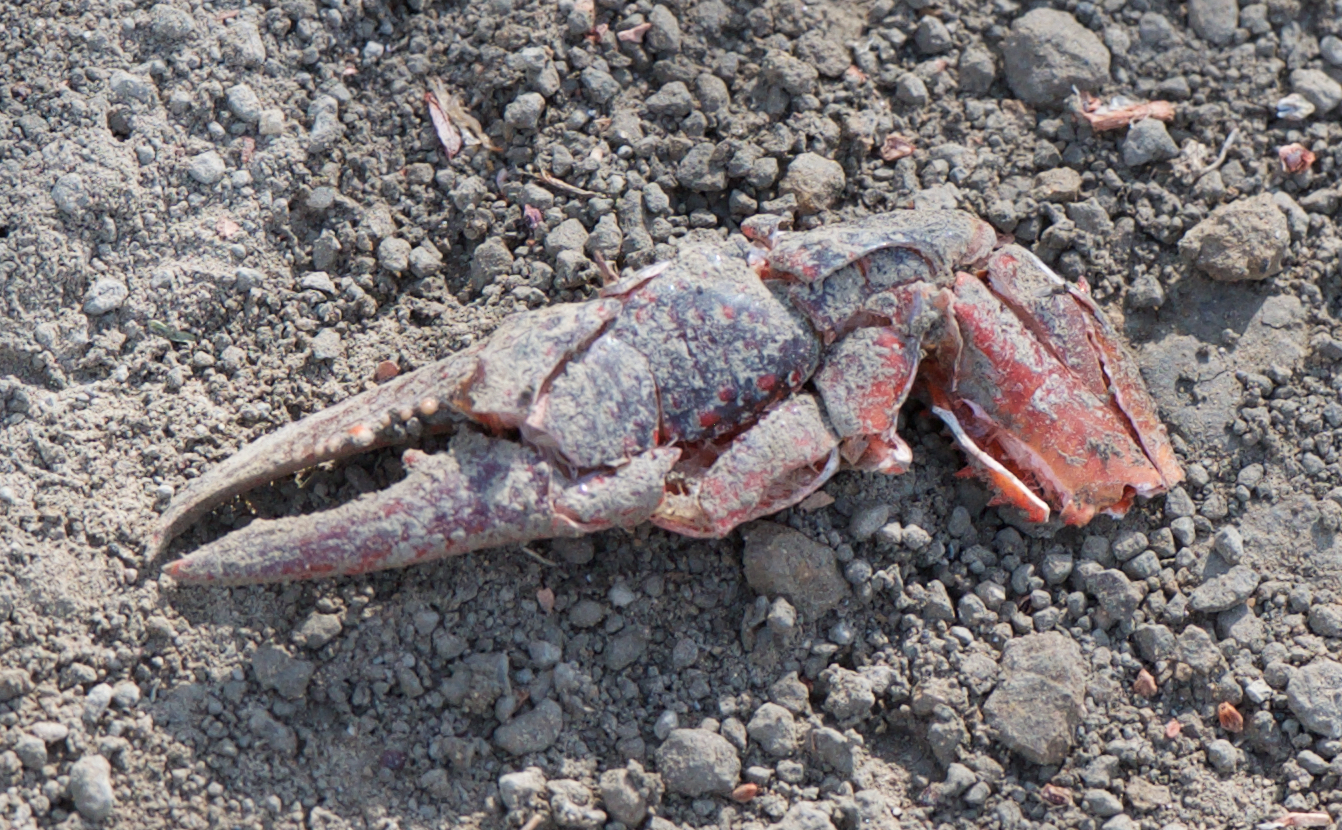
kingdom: Animalia
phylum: Arthropoda
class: Malacostraca
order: Decapoda
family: Cambaridae
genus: Procambarus
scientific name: Procambarus clarkii
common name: Red swamp crayfish
